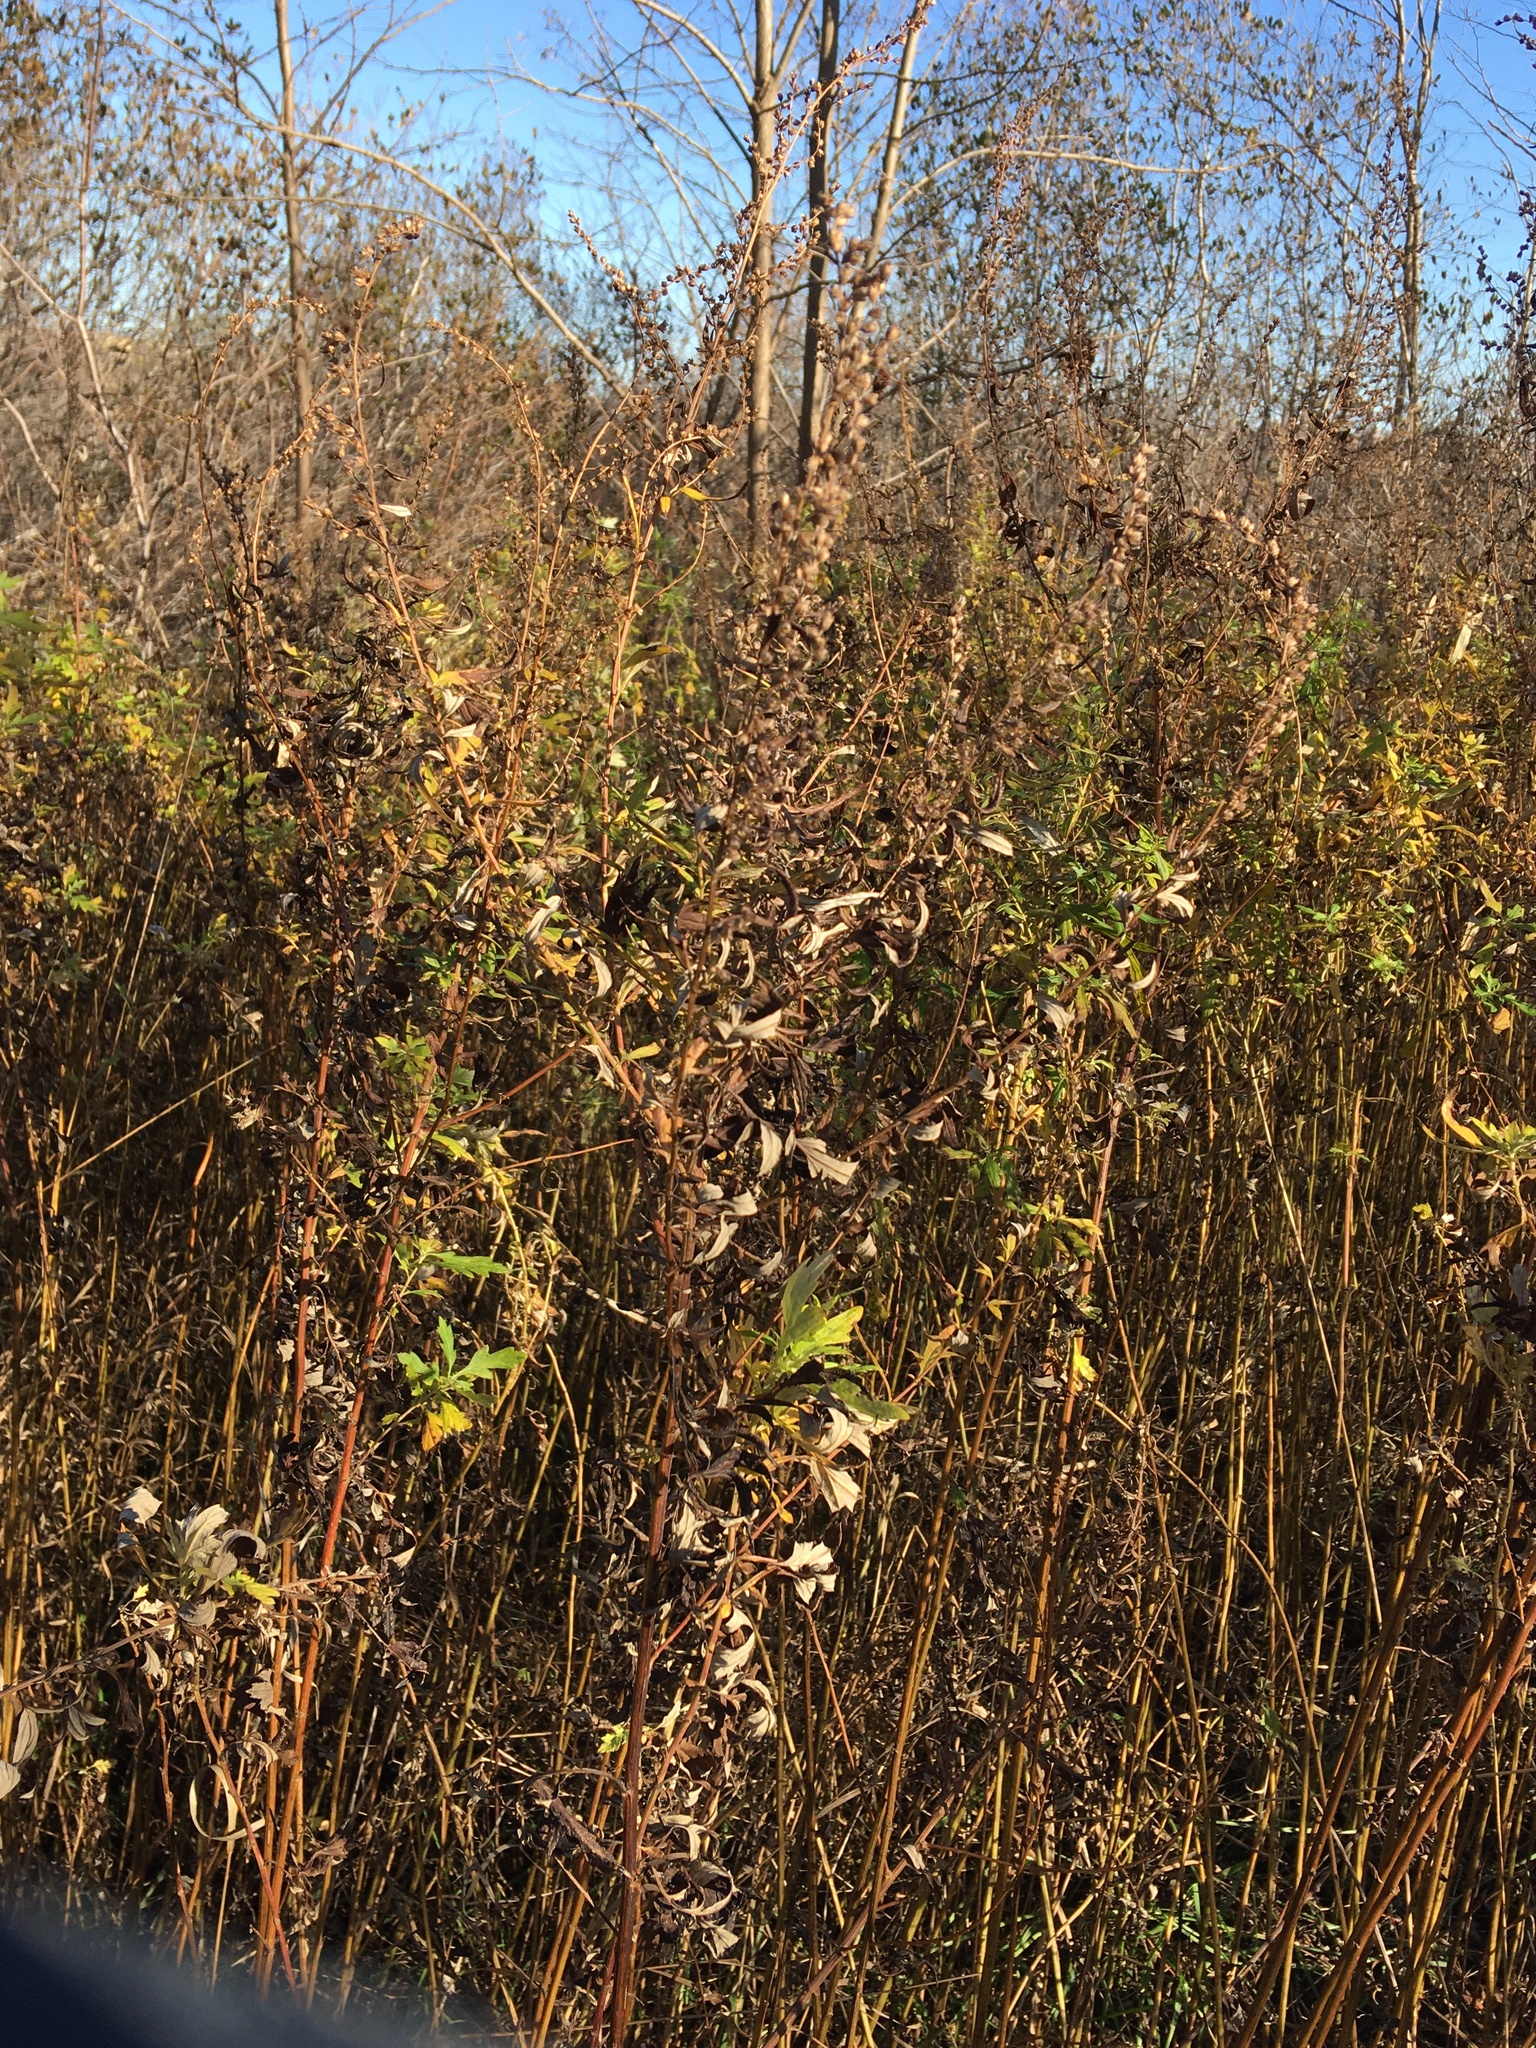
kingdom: Plantae
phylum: Tracheophyta
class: Magnoliopsida
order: Asterales
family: Asteraceae
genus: Artemisia
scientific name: Artemisia vulgaris
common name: Mugwort
